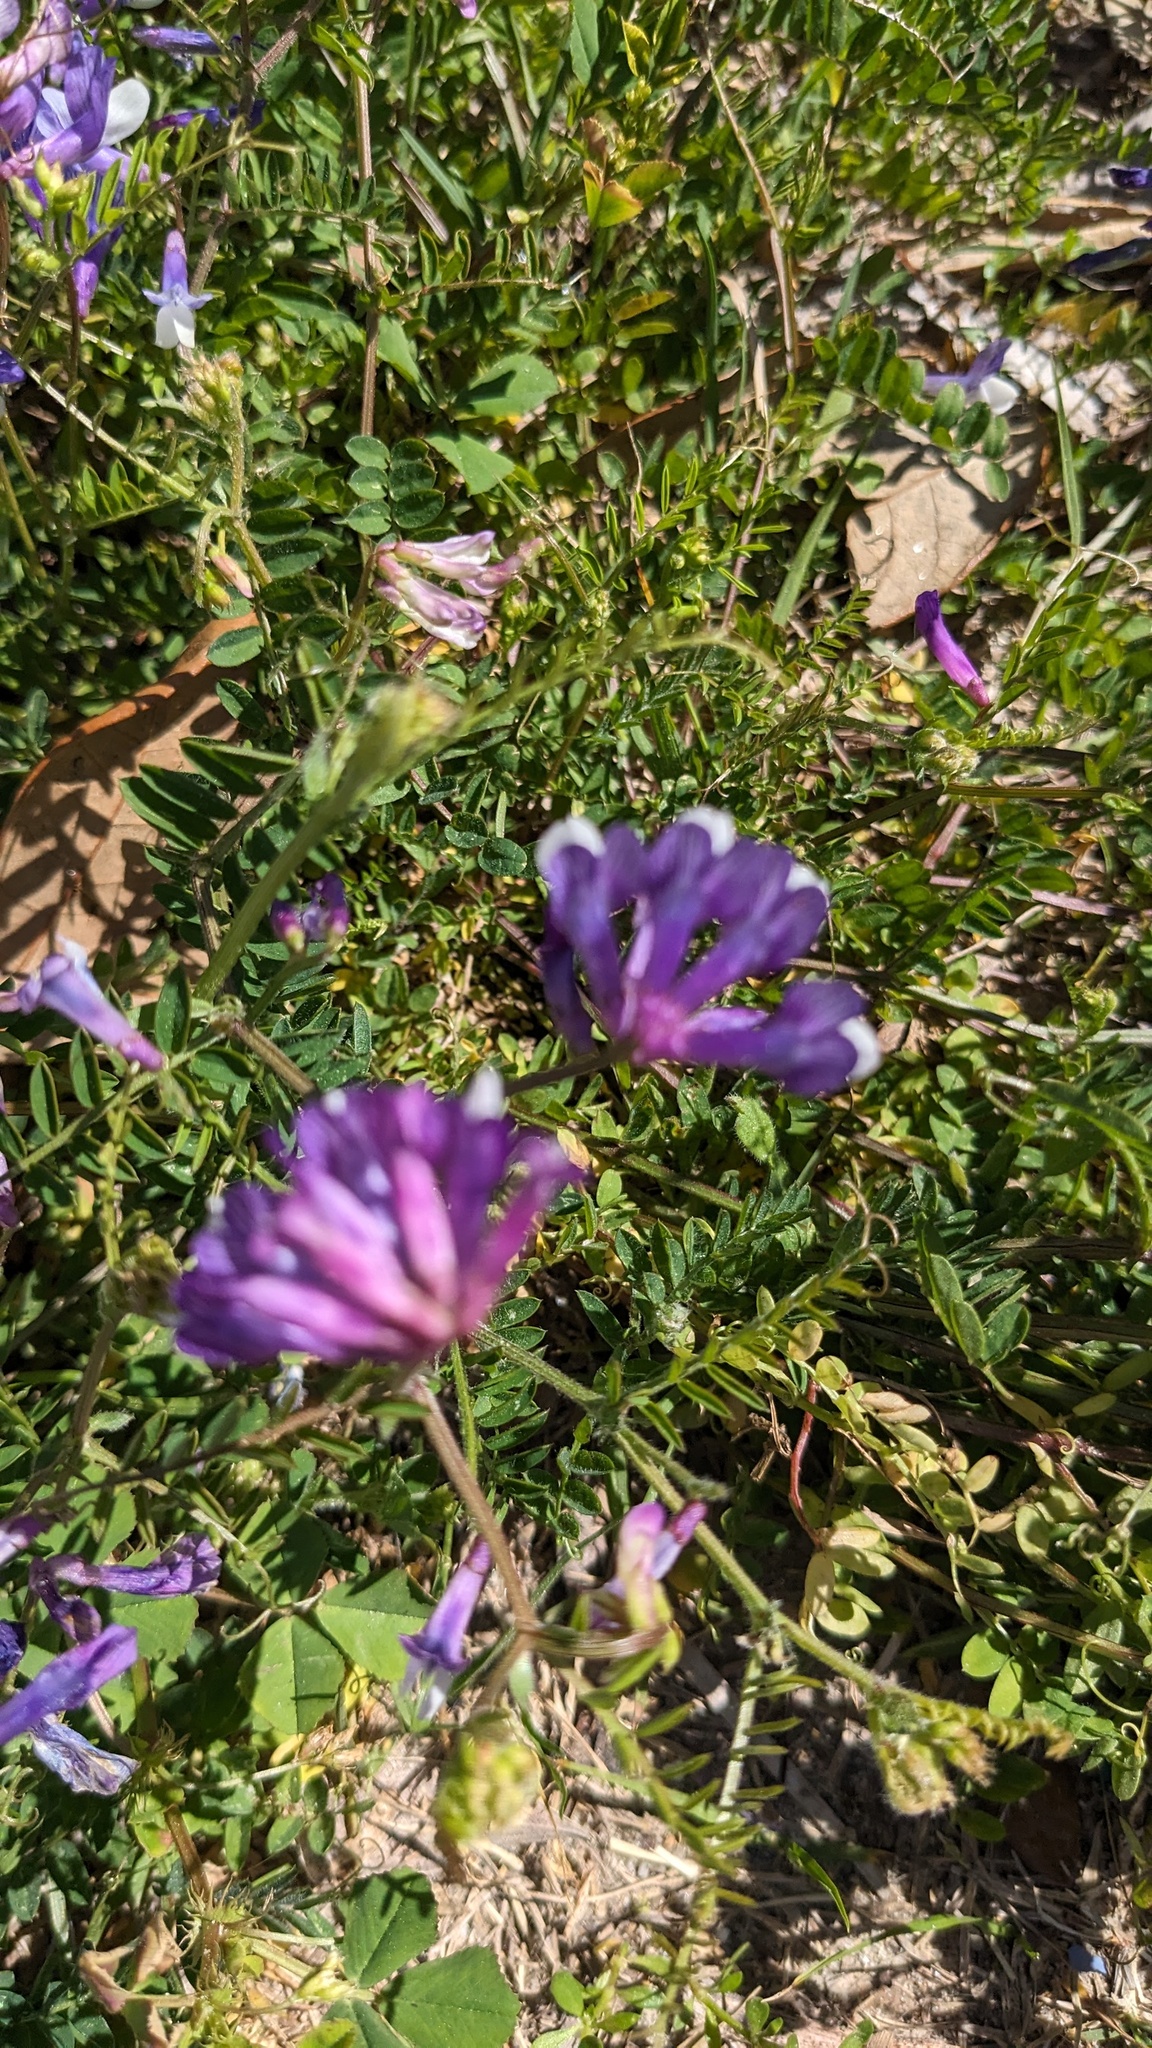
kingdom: Plantae
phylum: Tracheophyta
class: Magnoliopsida
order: Fabales
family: Fabaceae
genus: Vicia
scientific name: Vicia villosa
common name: Fodder vetch
